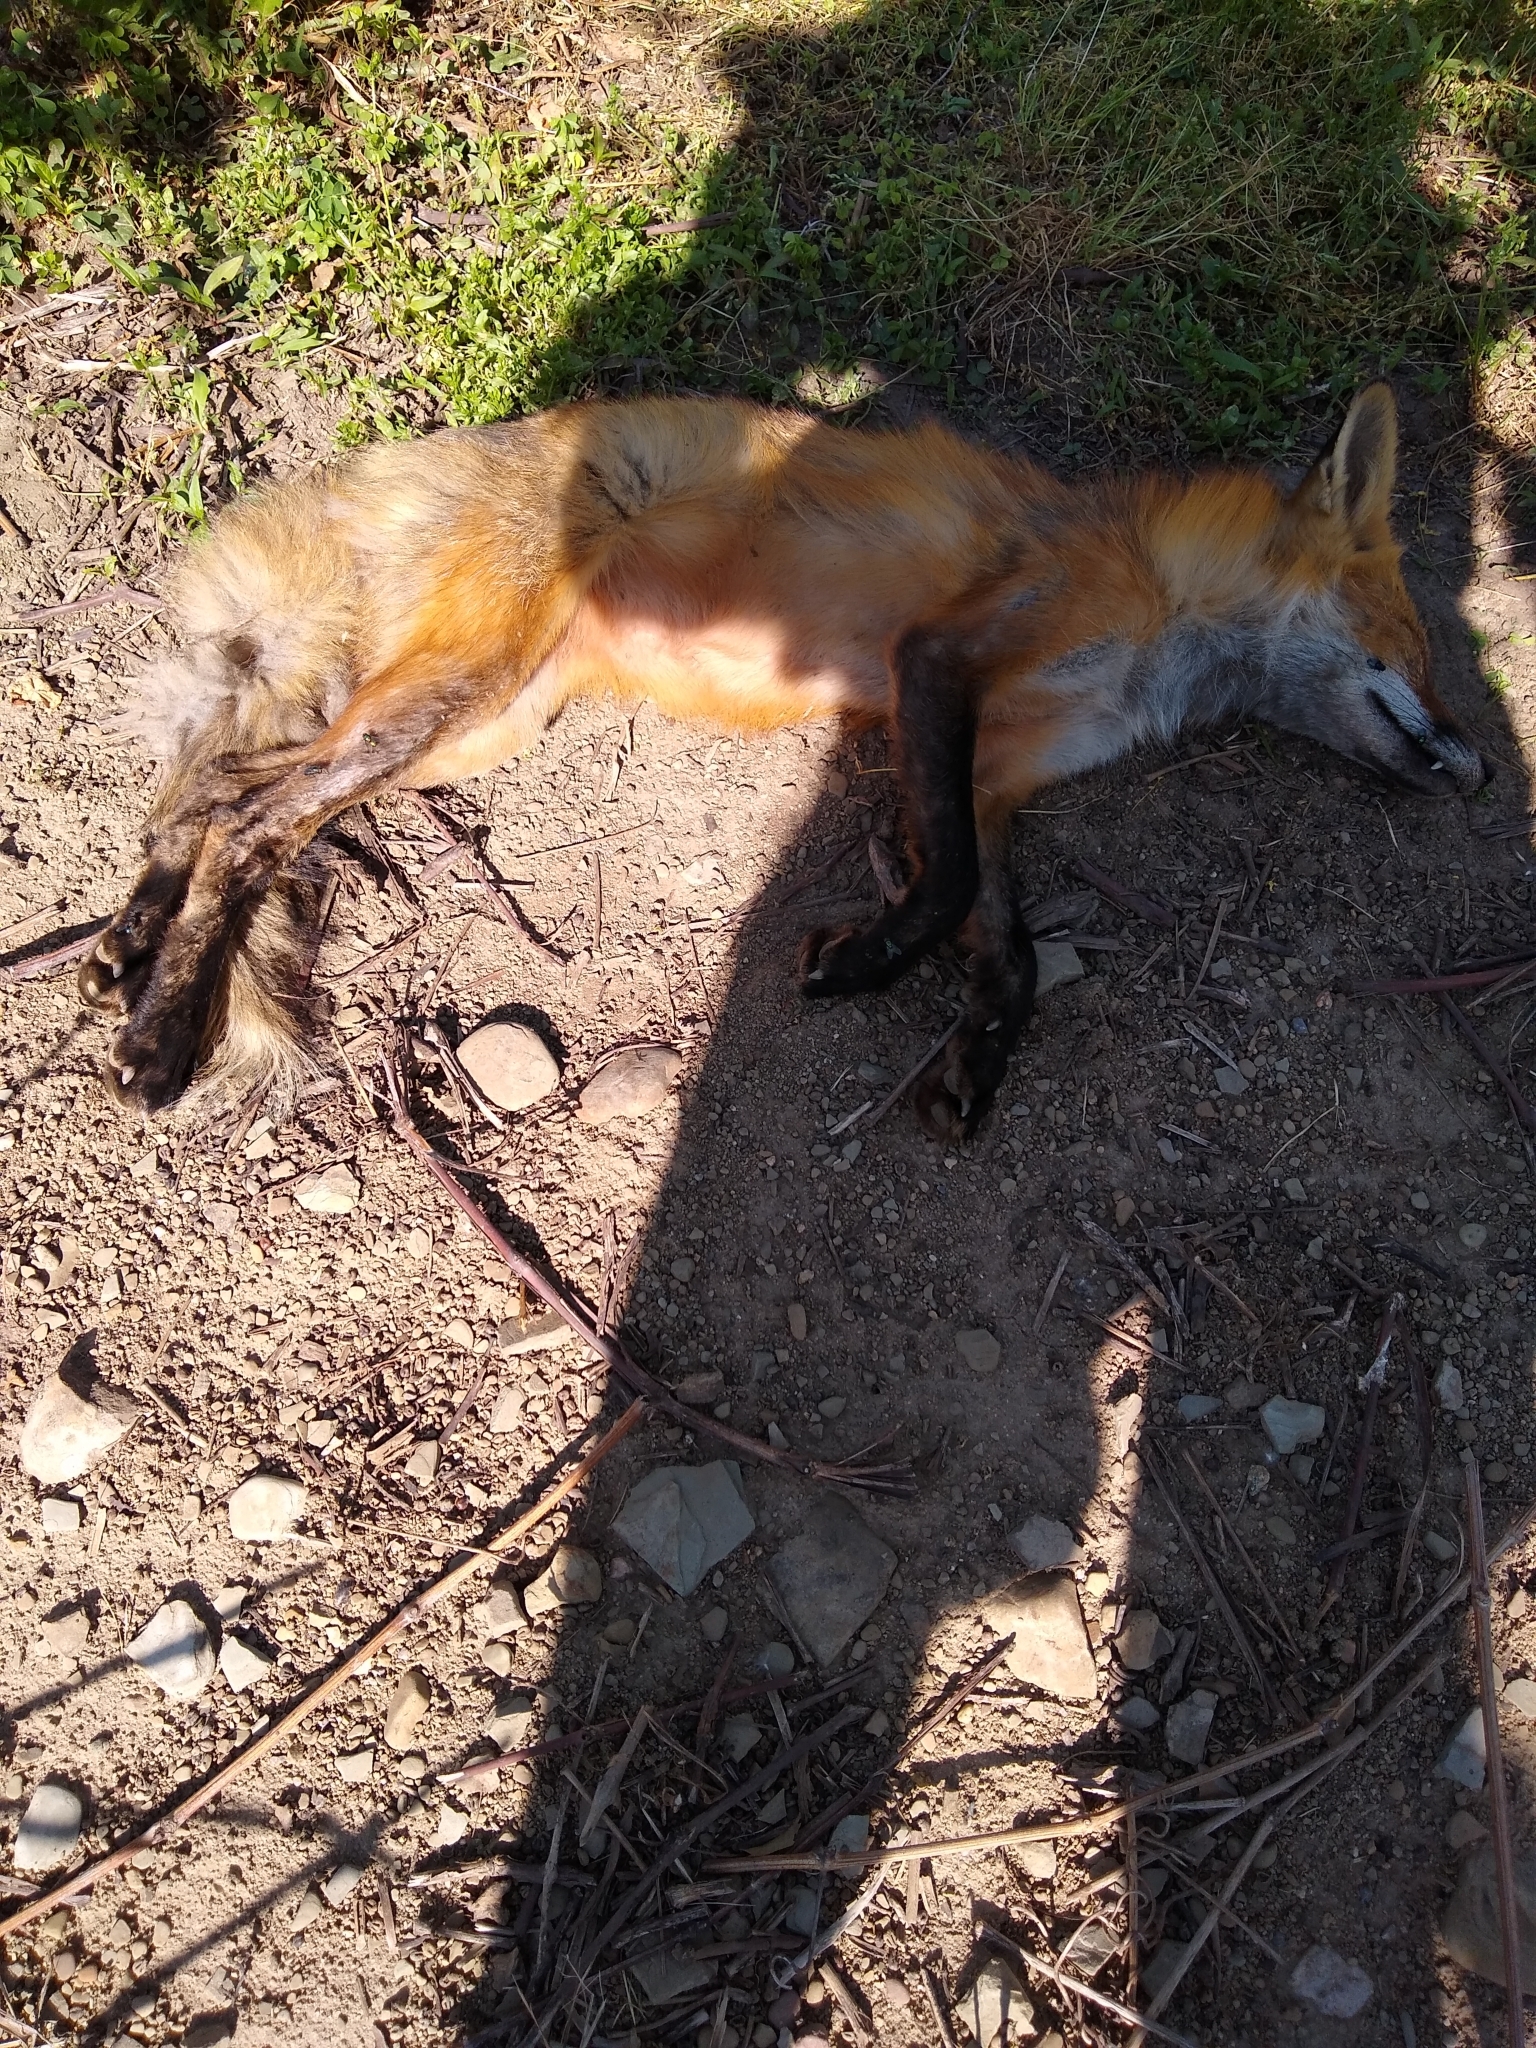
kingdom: Animalia
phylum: Chordata
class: Mammalia
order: Carnivora
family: Canidae
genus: Vulpes
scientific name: Vulpes vulpes
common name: Red fox
